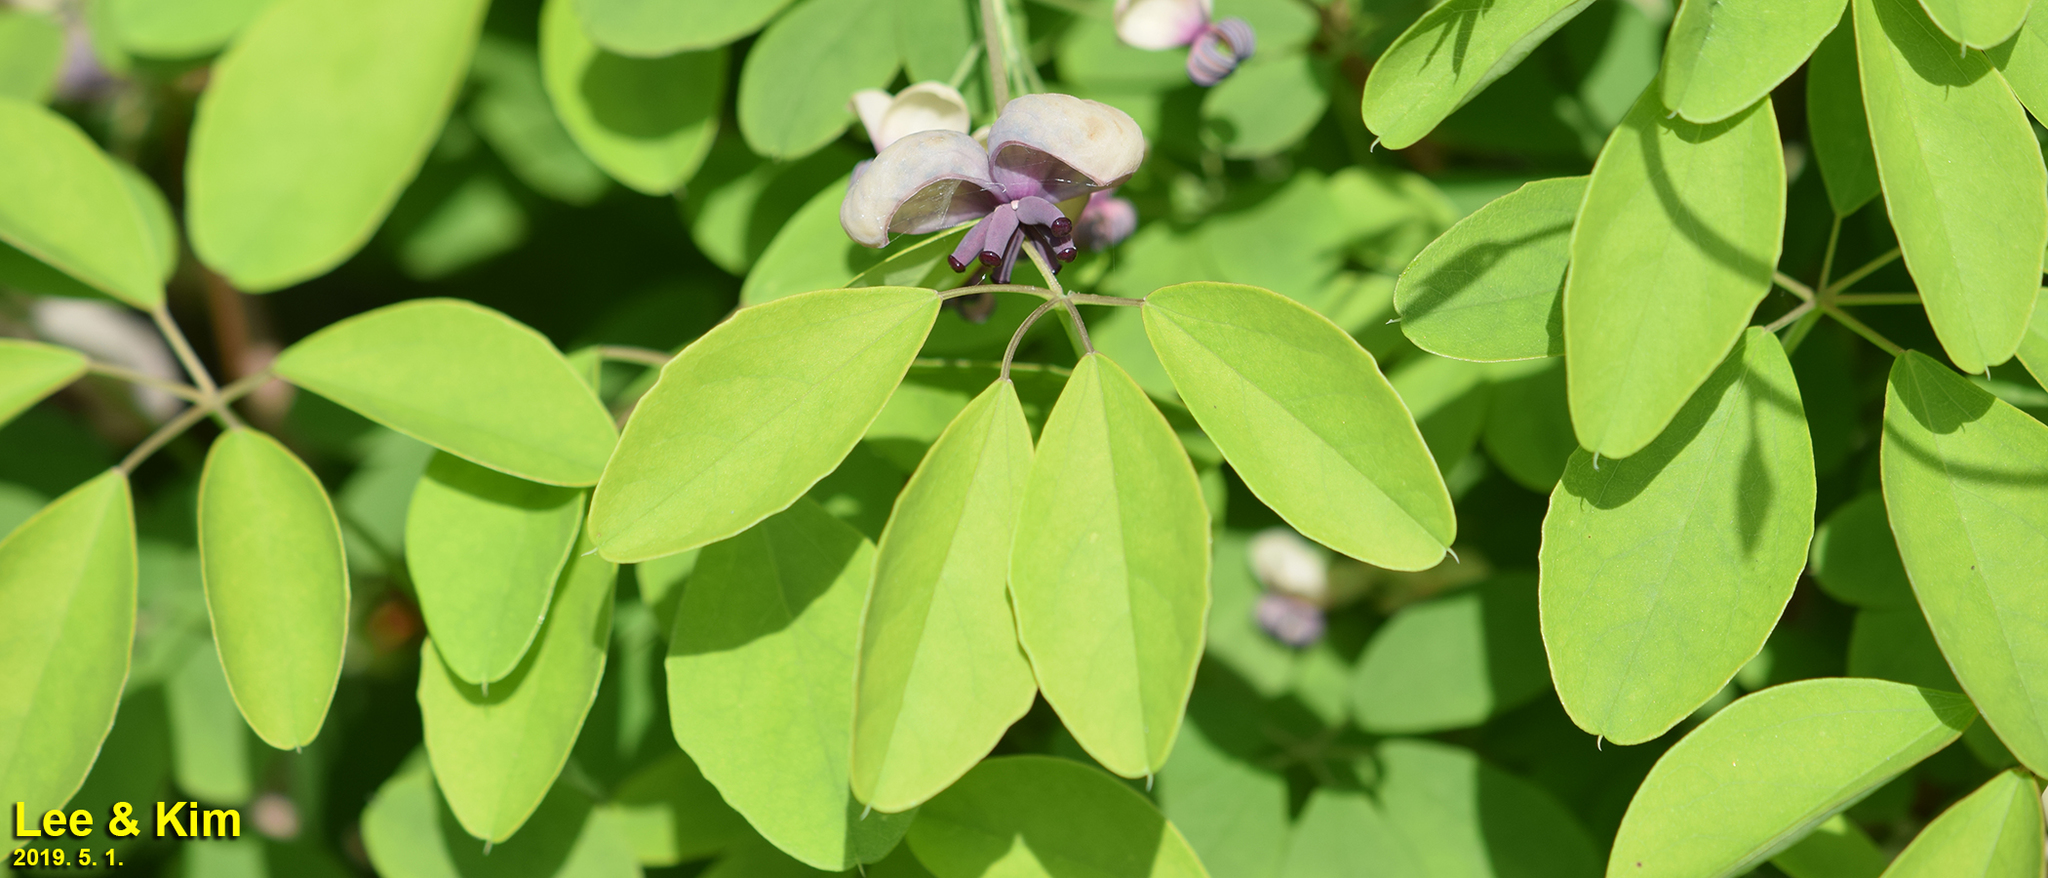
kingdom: Plantae
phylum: Tracheophyta
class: Magnoliopsida
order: Ranunculales
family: Lardizabalaceae
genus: Akebia
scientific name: Akebia quinata
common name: Five-leaf akebia
